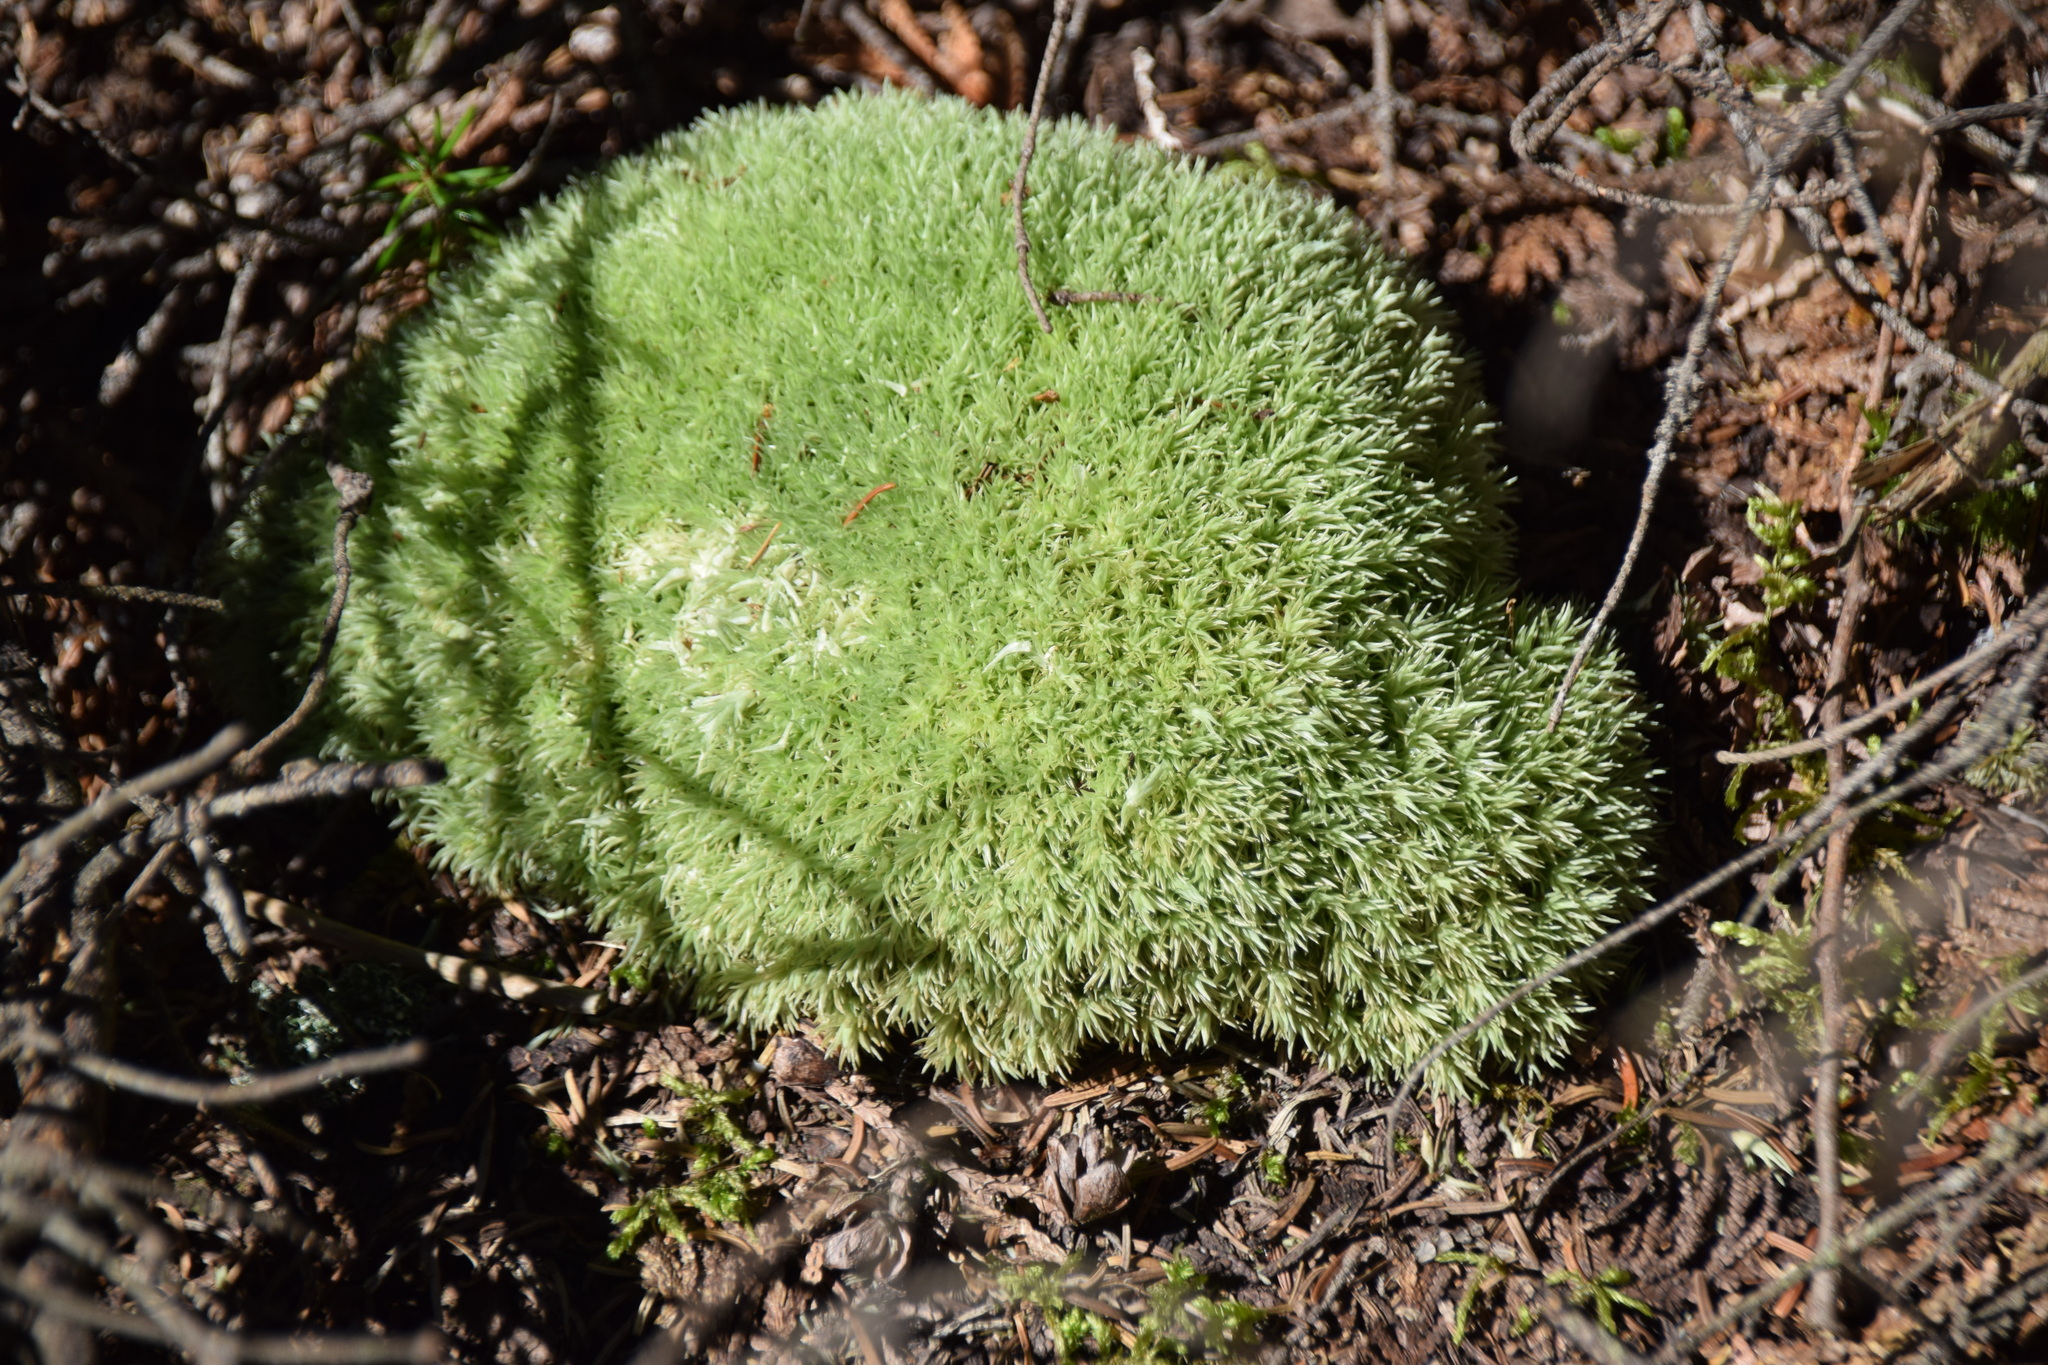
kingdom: Plantae
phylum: Bryophyta
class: Bryopsida
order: Dicranales
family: Leucobryaceae
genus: Leucobryum
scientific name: Leucobryum glaucum
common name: Large white-moss
